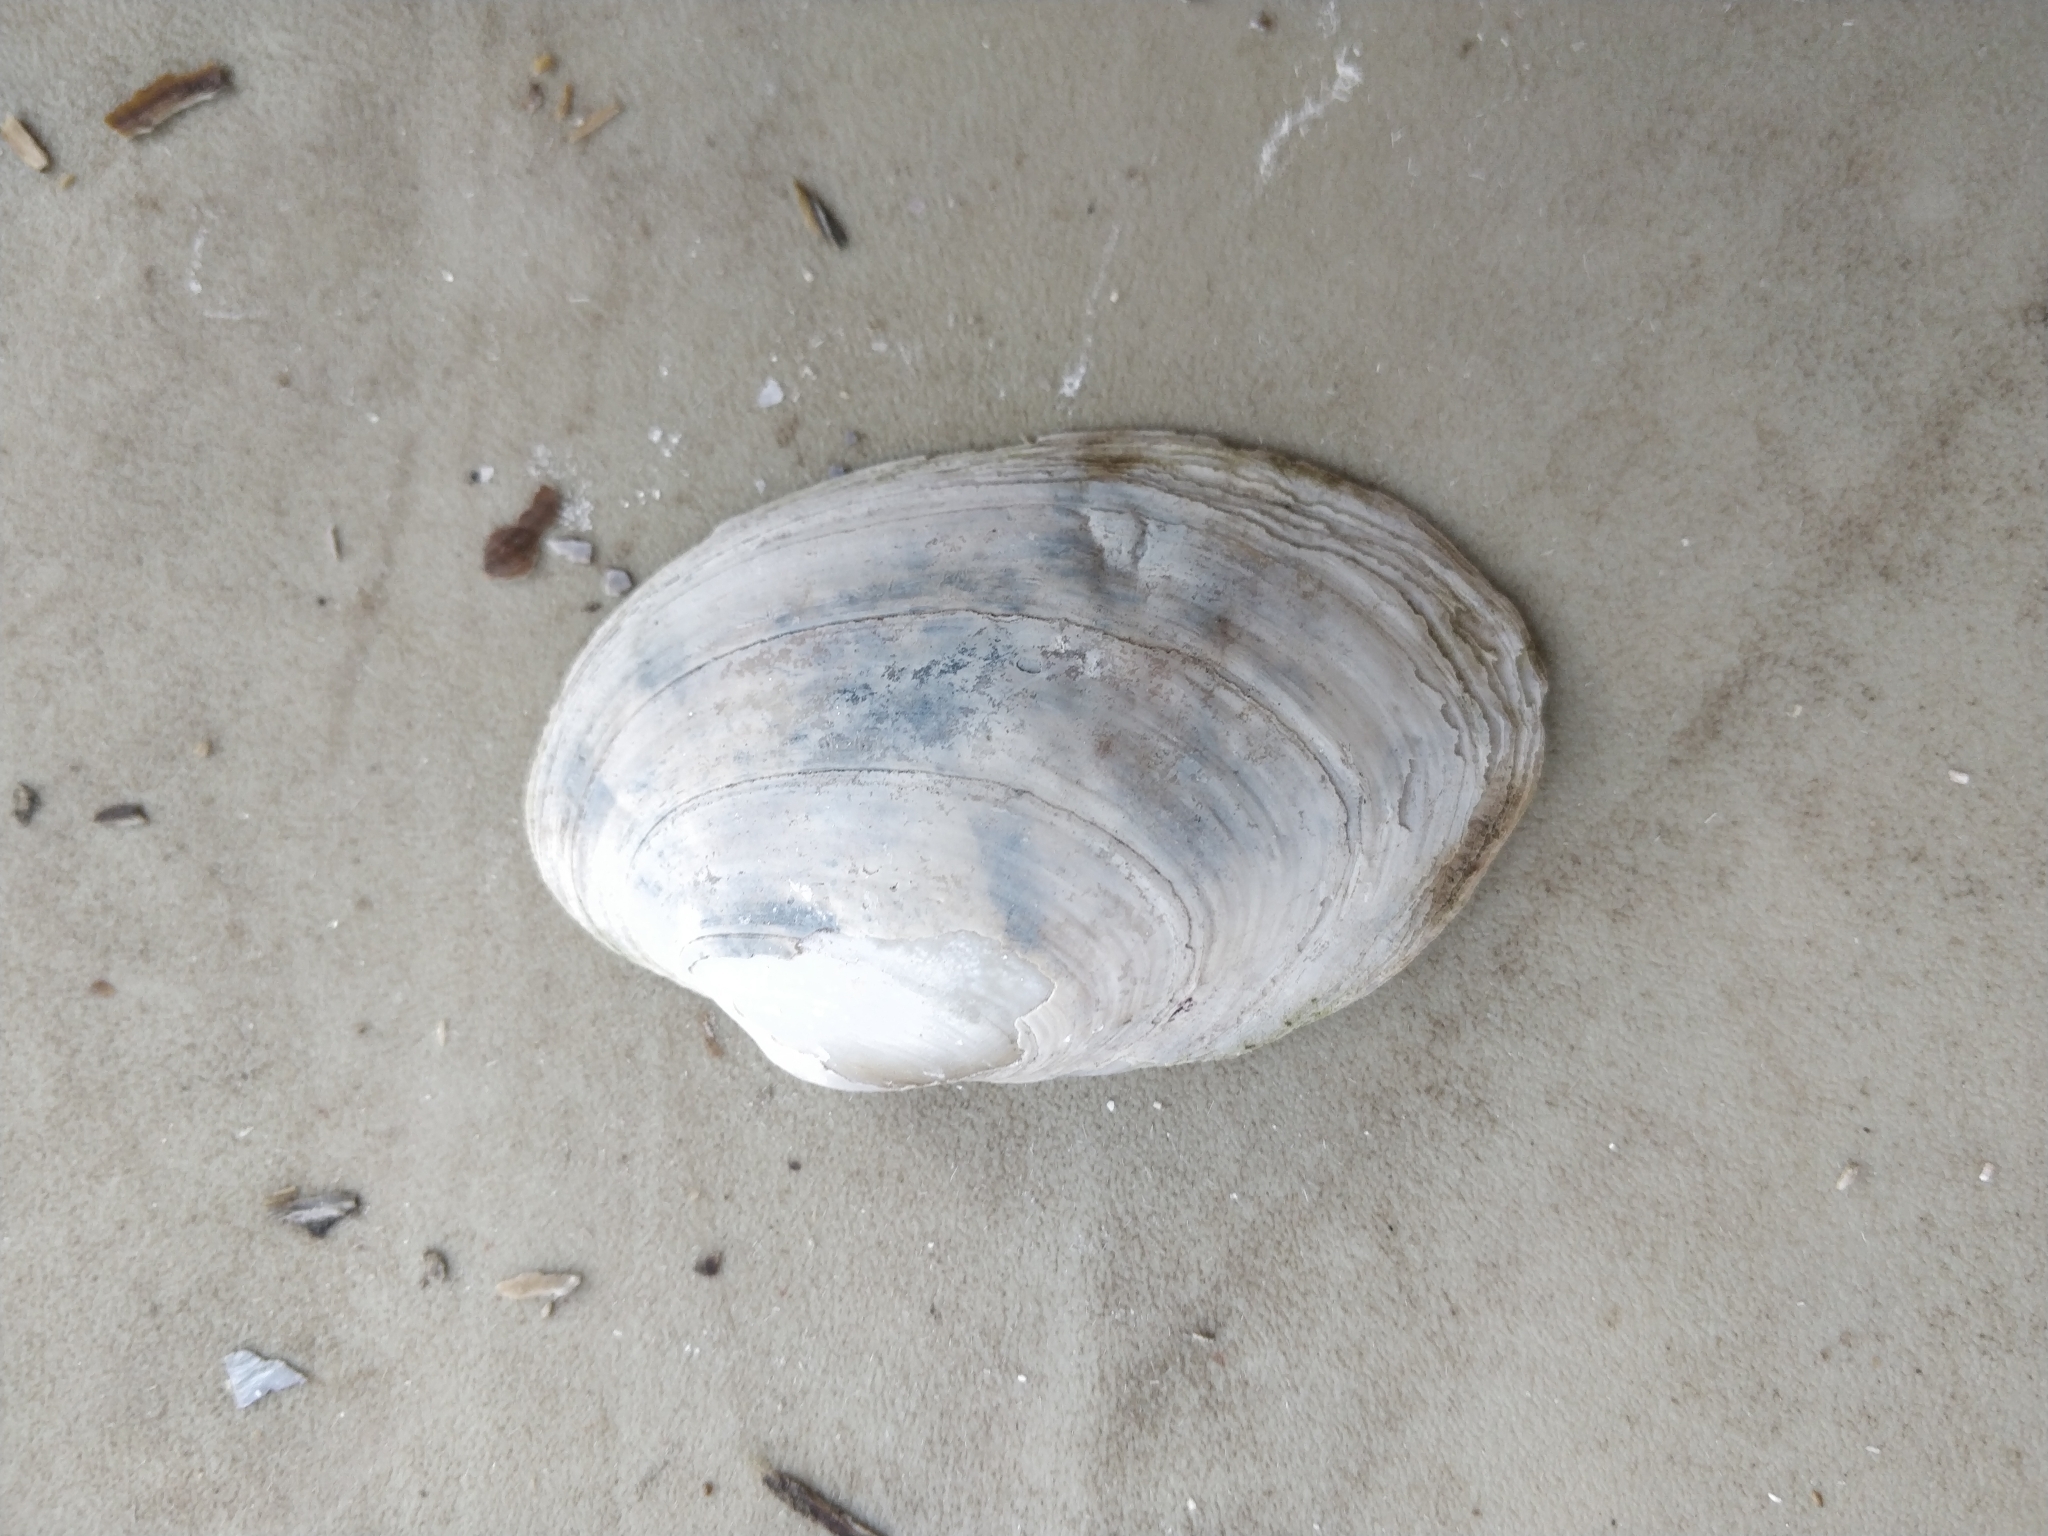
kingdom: Animalia
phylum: Mollusca
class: Bivalvia
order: Unionida
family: Unionidae
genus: Lampsilis
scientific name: Lampsilis cardium
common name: Plain pocketbook
